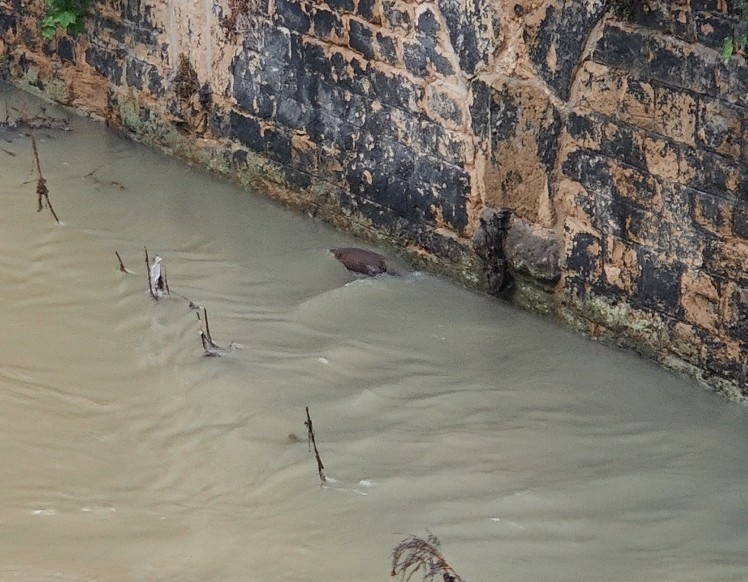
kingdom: Animalia
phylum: Chordata
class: Mammalia
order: Rodentia
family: Cricetidae
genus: Ondatra
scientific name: Ondatra zibethicus
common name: Muskrat
